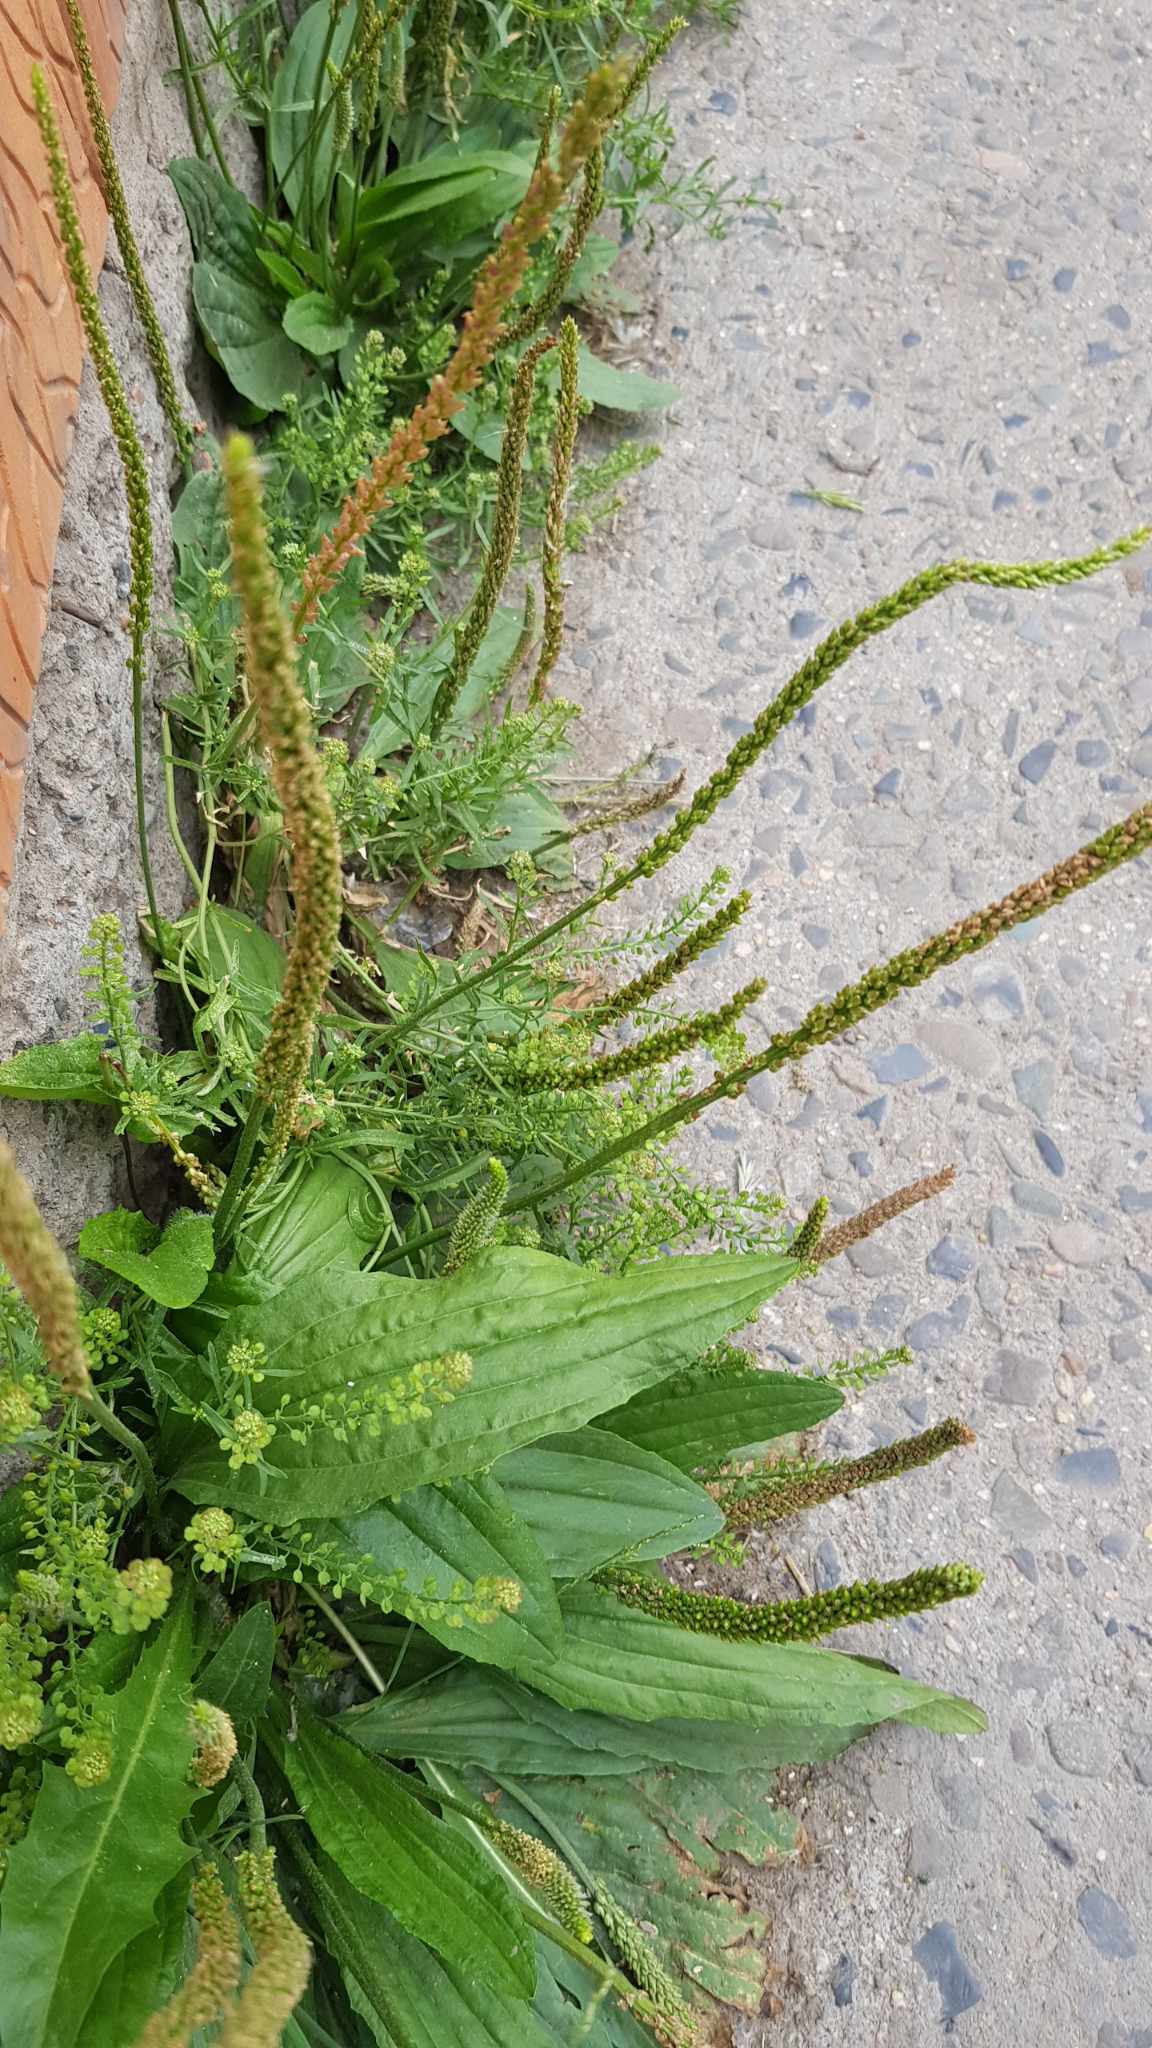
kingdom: Plantae
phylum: Tracheophyta
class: Magnoliopsida
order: Lamiales
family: Plantaginaceae
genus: Plantago
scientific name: Plantago depressa
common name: Depressed plantain
